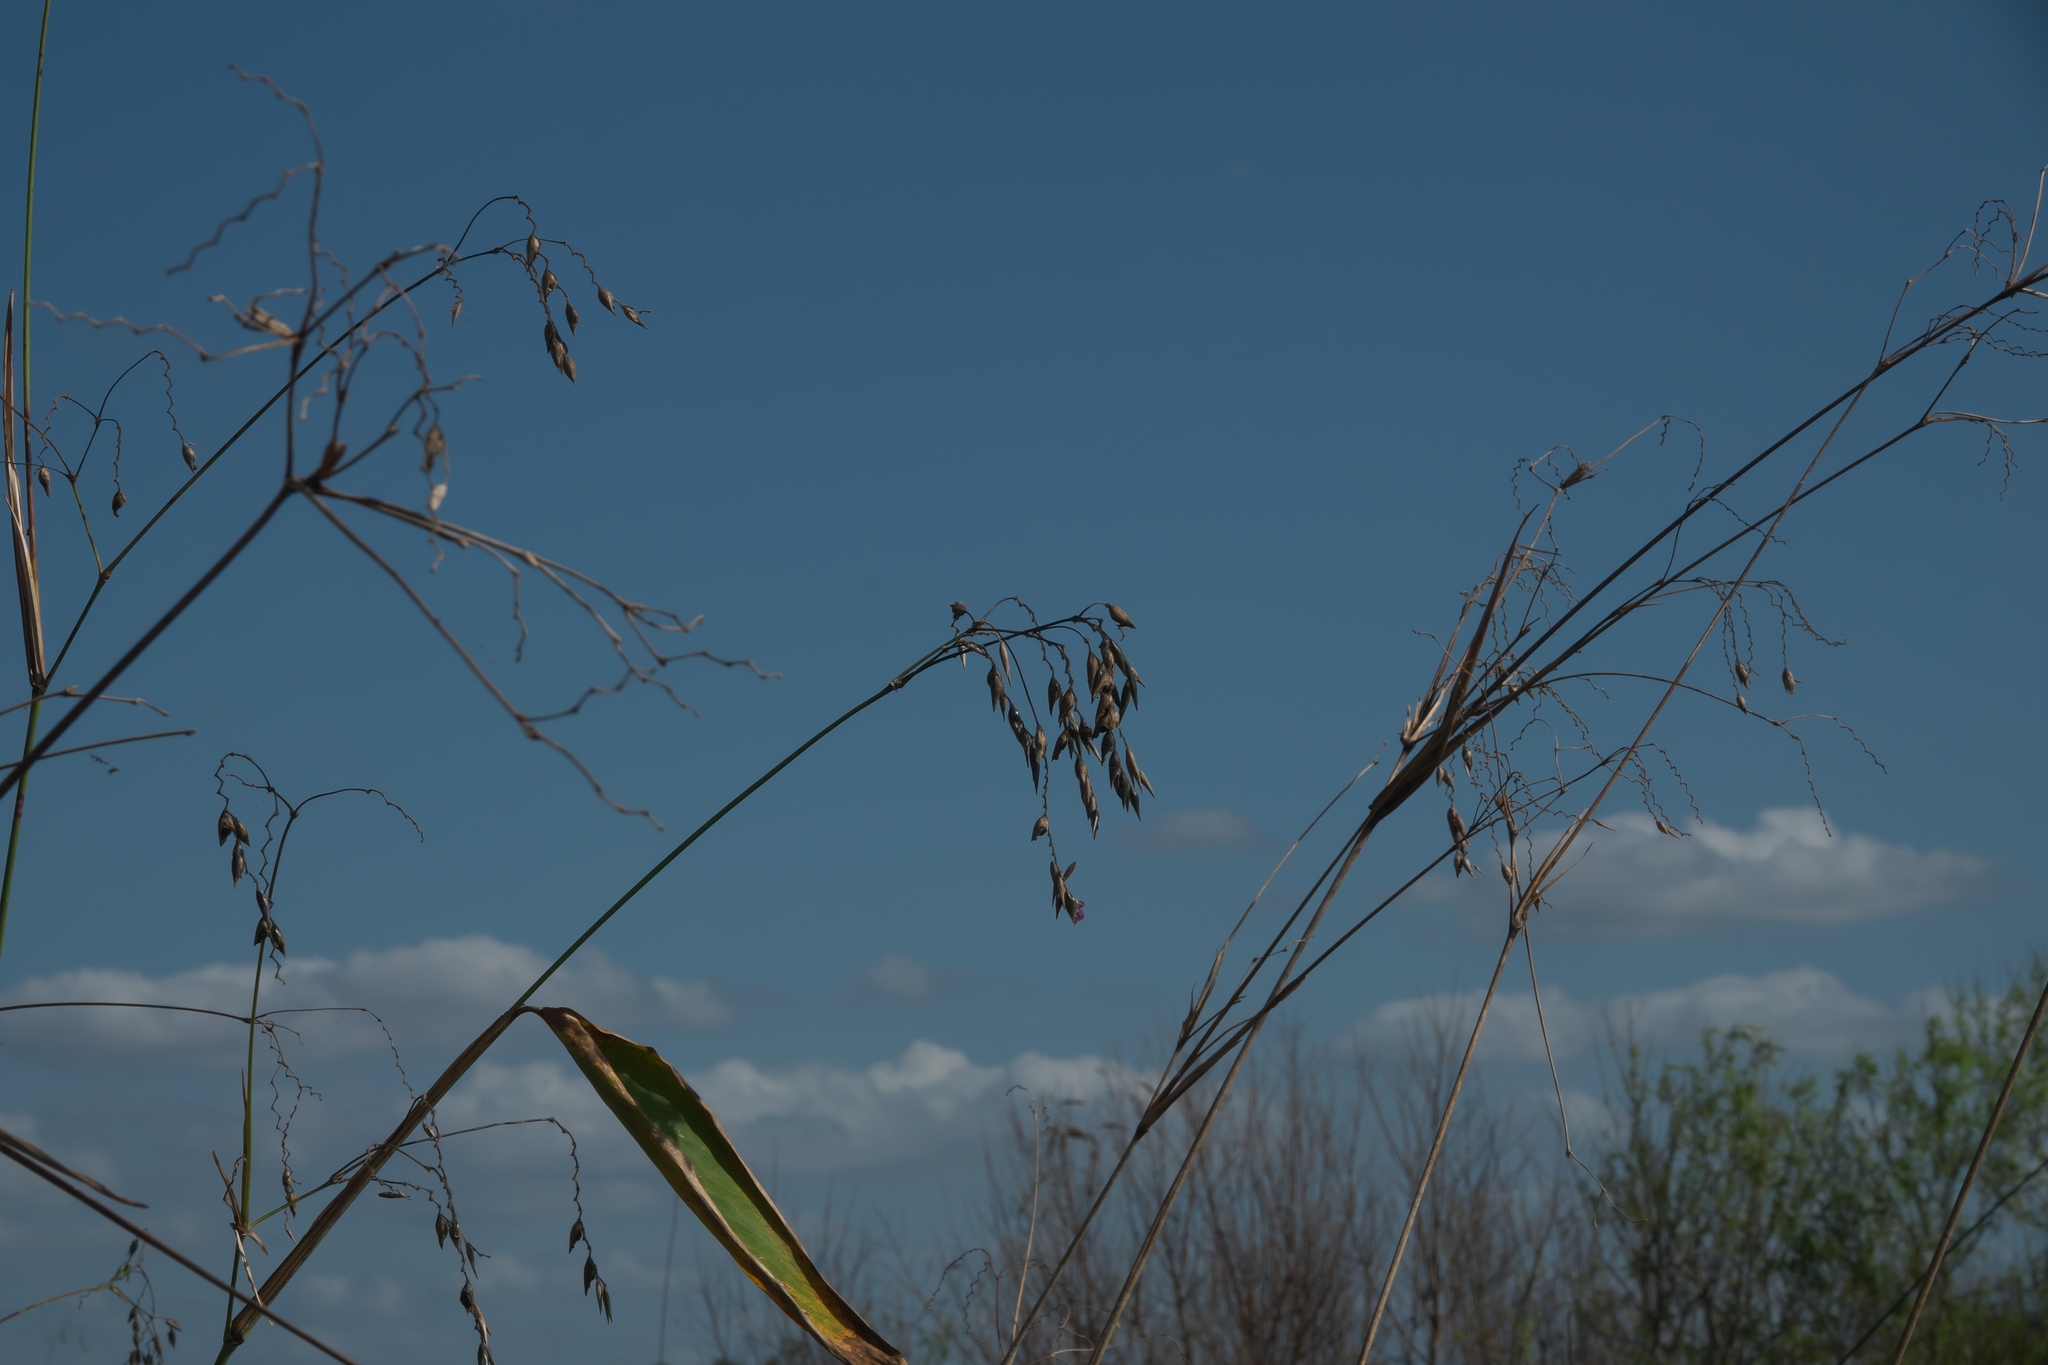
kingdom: Plantae
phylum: Tracheophyta
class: Liliopsida
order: Zingiberales
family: Marantaceae
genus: Thalia
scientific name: Thalia geniculata
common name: Arrowroot
